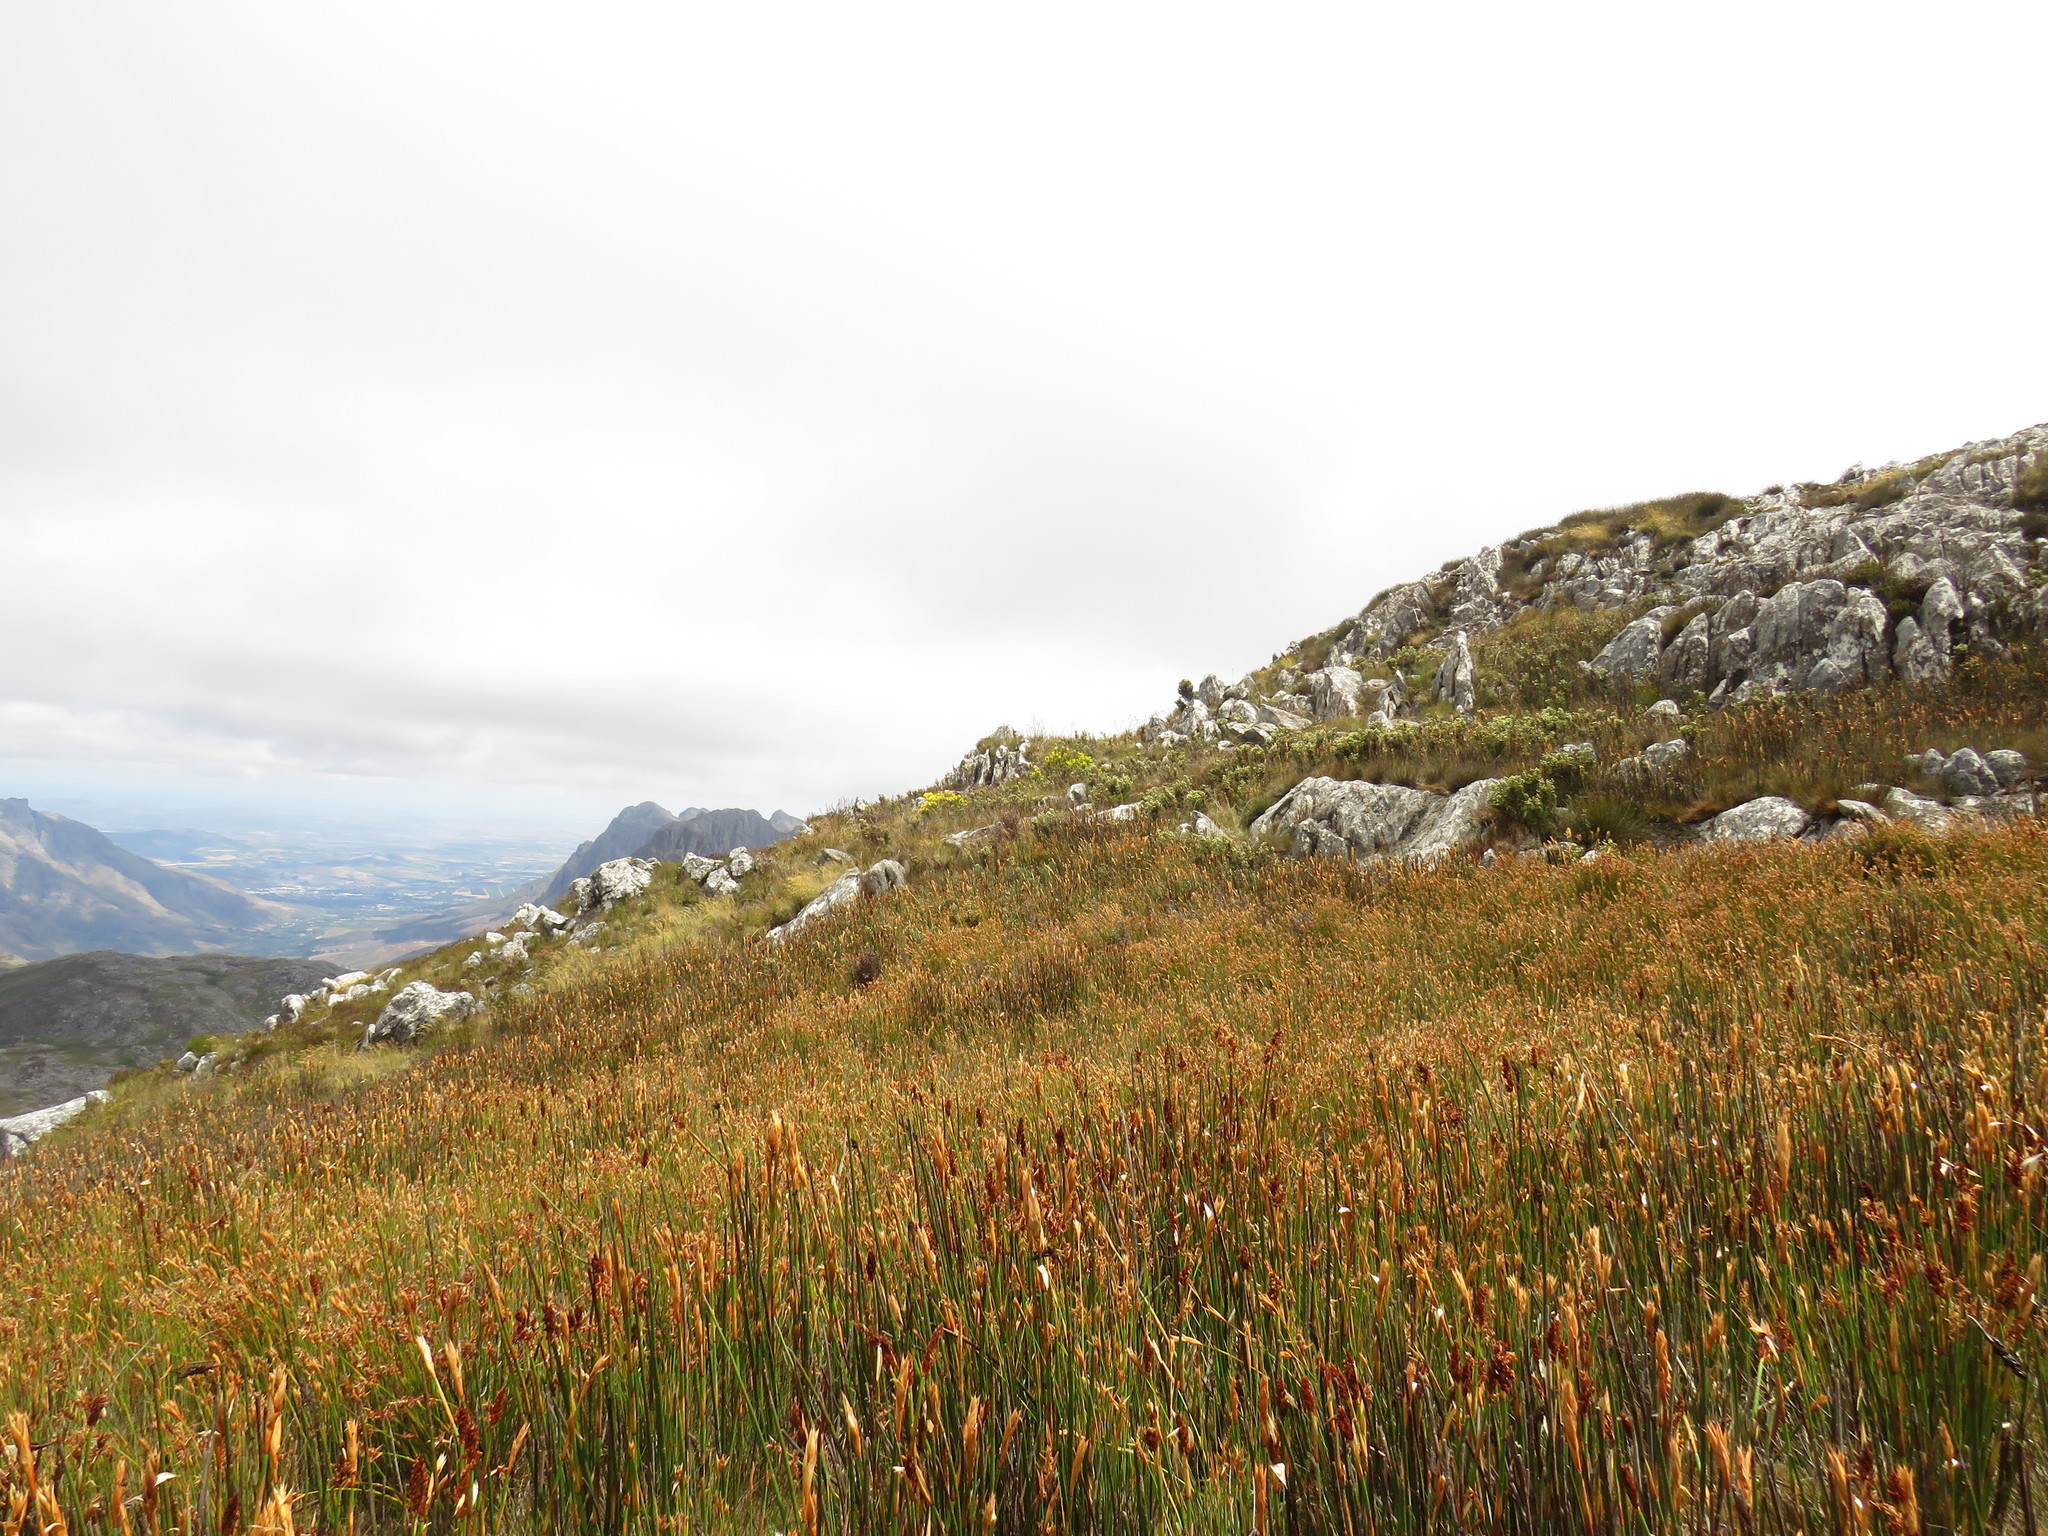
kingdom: Plantae
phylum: Tracheophyta
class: Magnoliopsida
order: Proteales
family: Proteaceae
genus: Leucadendron
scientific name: Leucadendron gandogeri
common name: Broad-leaf conebush
